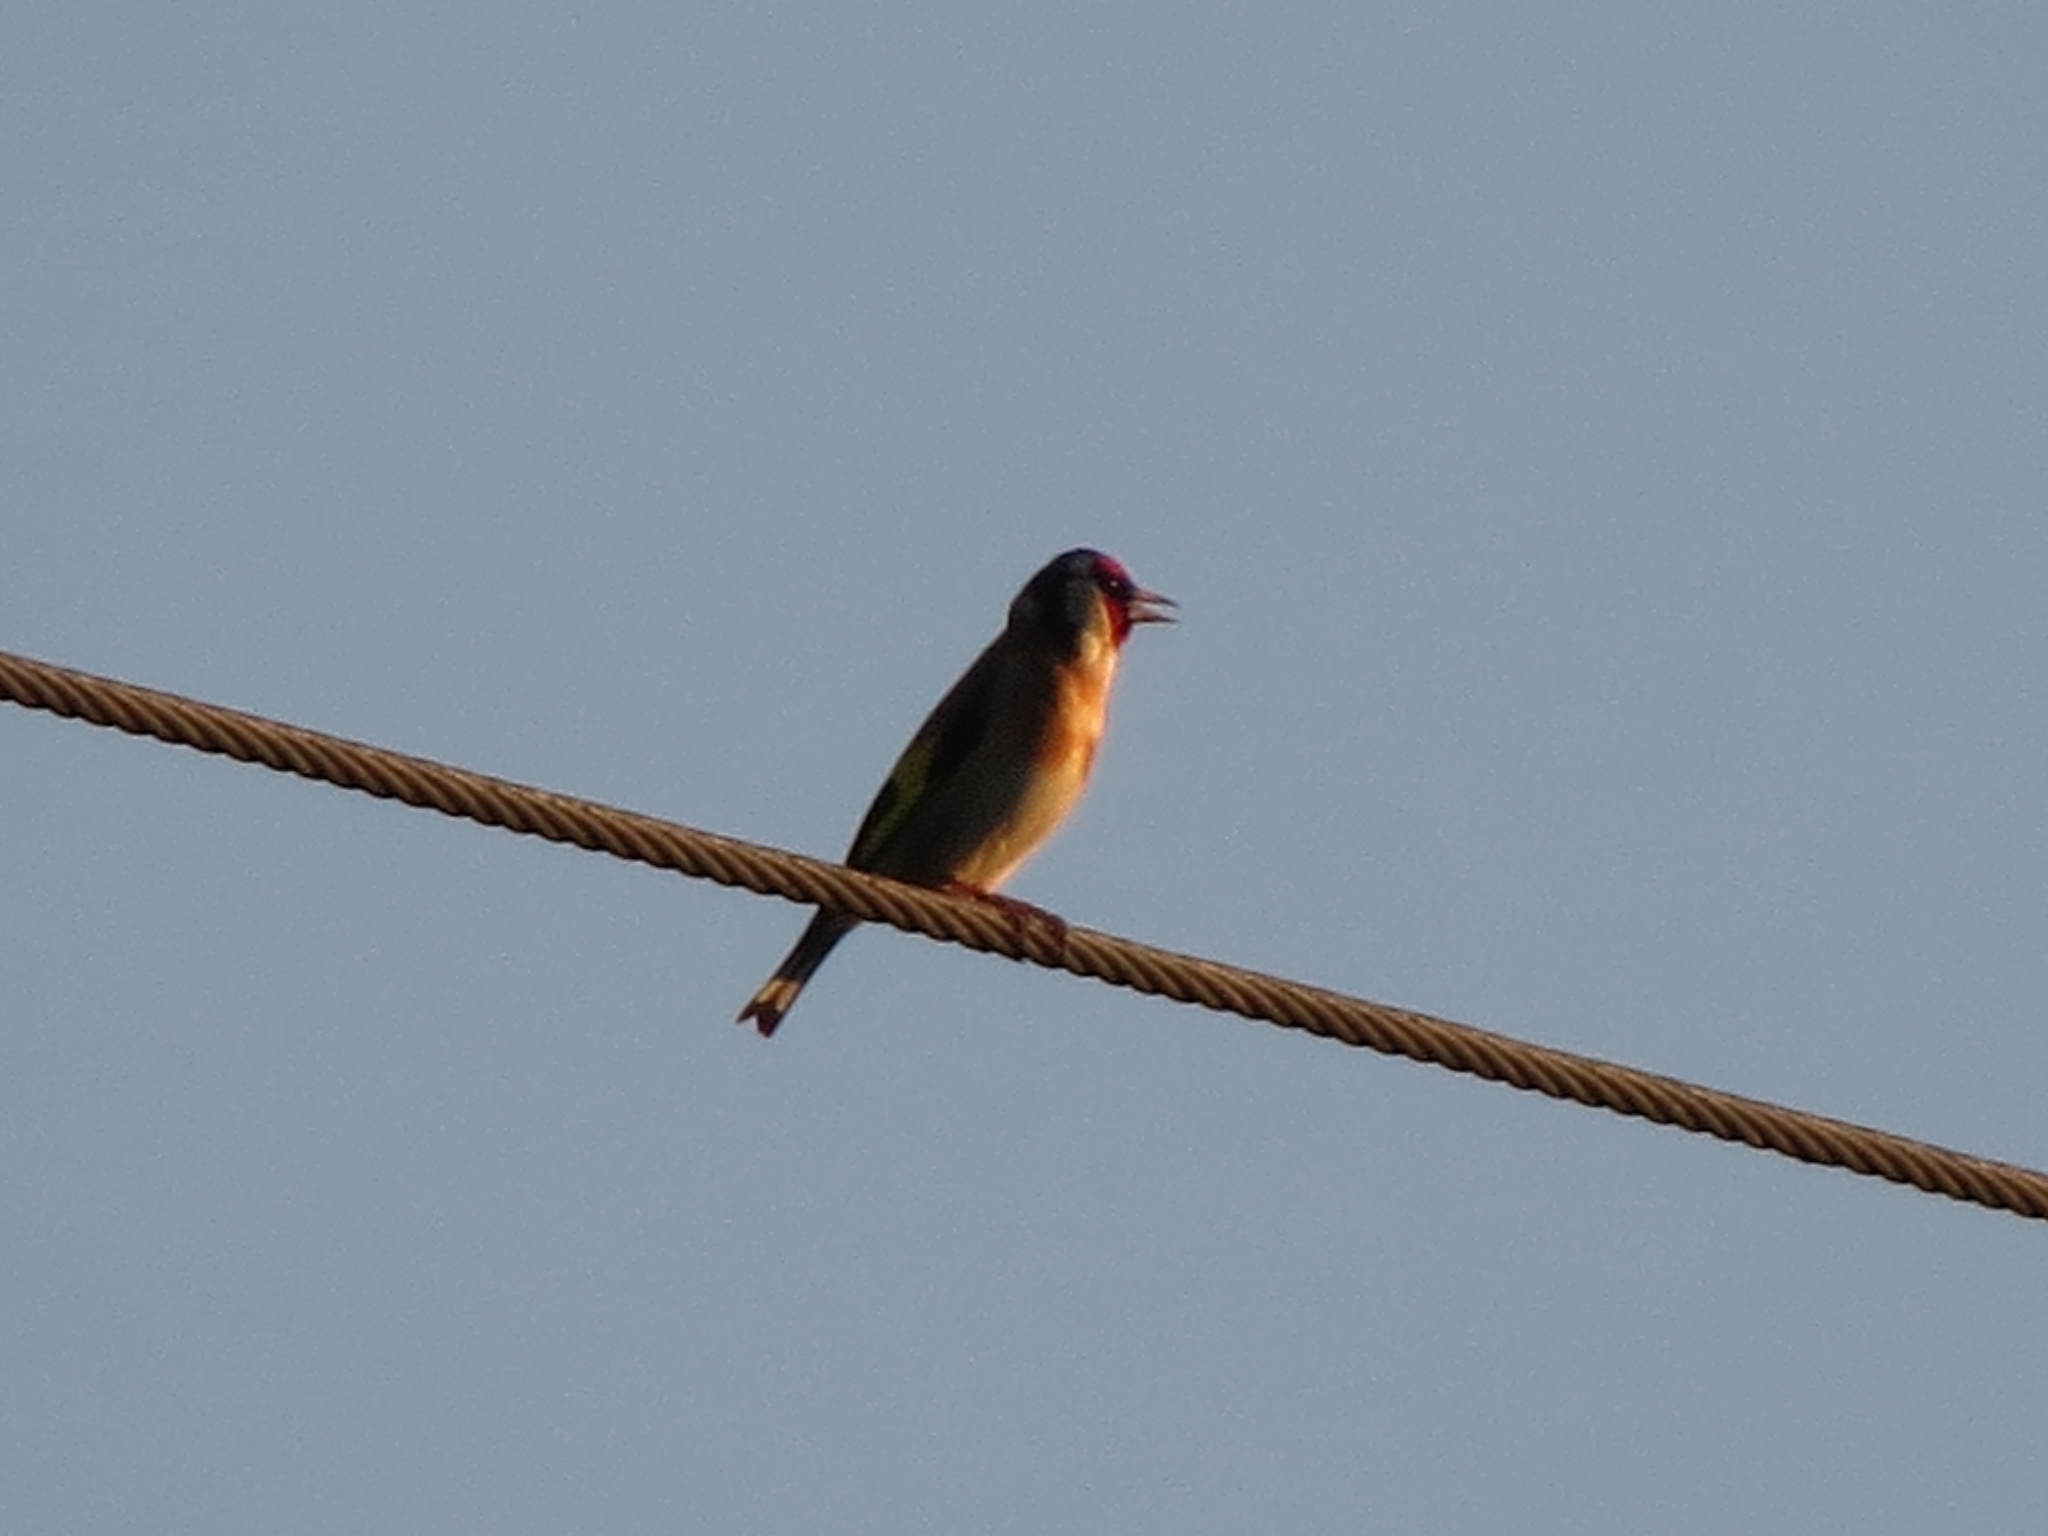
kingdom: Animalia
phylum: Chordata
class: Aves
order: Passeriformes
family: Fringillidae
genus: Carduelis
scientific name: Carduelis carduelis
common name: European goldfinch
